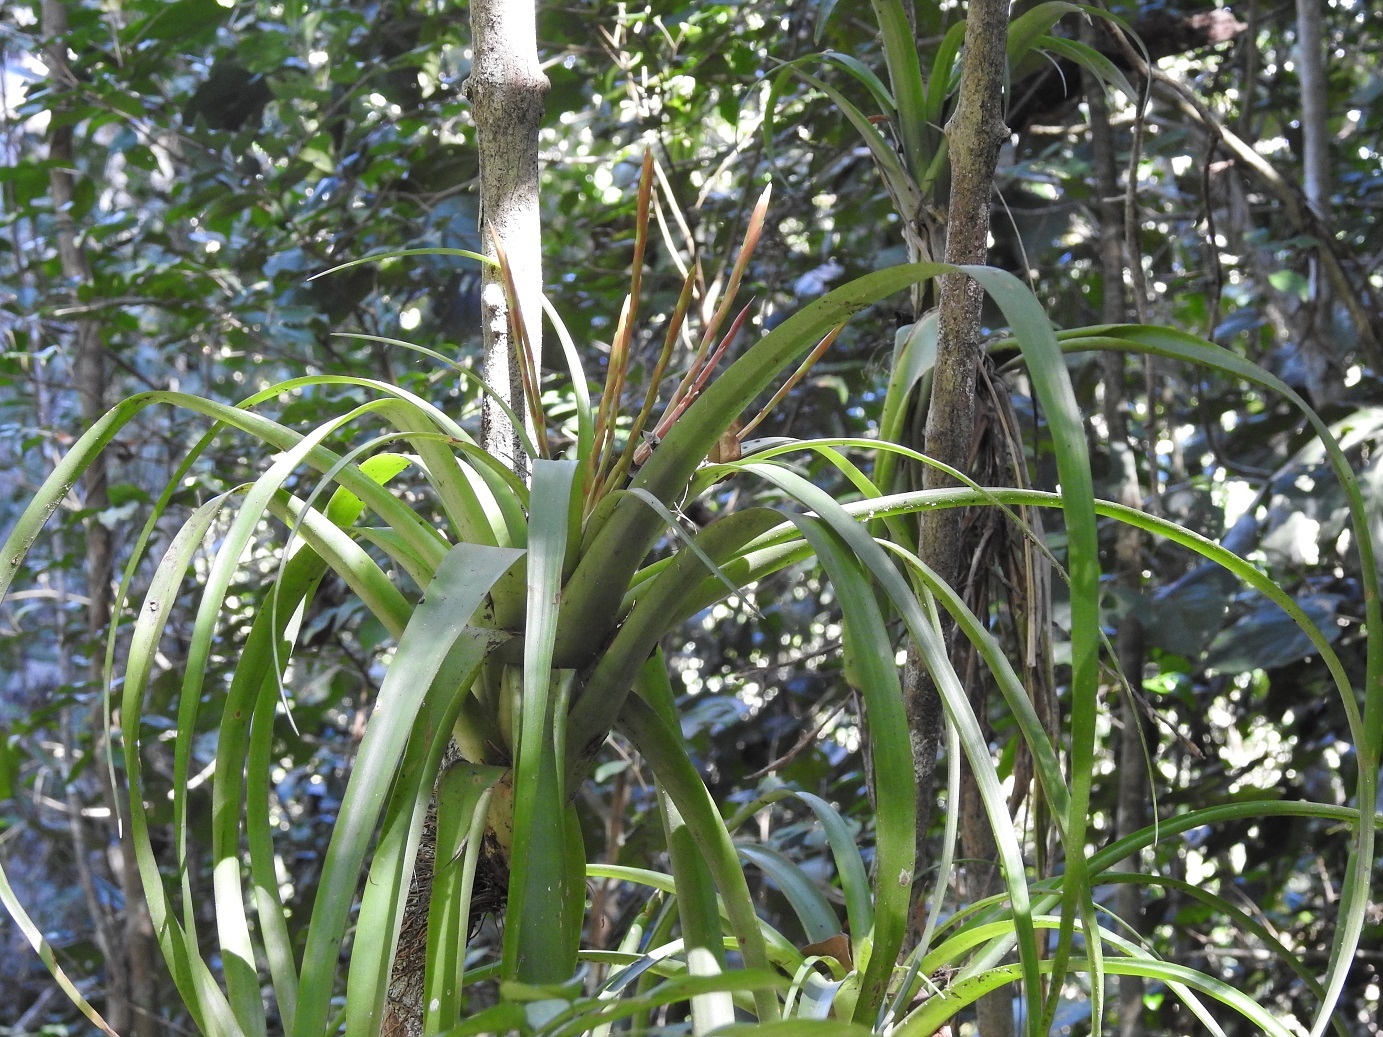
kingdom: Plantae
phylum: Tracheophyta
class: Liliopsida
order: Poales
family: Bromeliaceae
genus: Tillandsia
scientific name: Tillandsia flabellata
